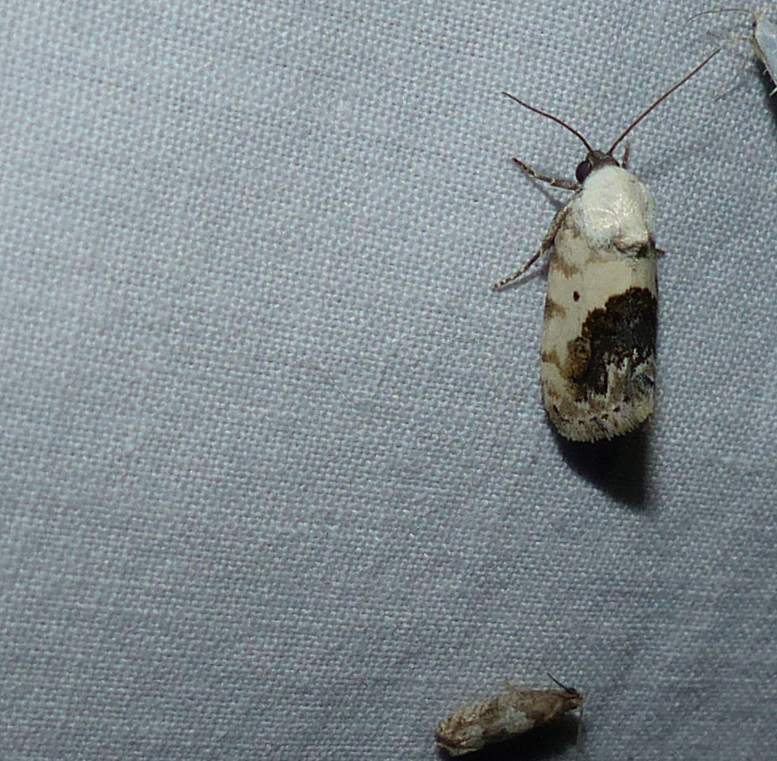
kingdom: Animalia
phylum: Arthropoda
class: Insecta
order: Lepidoptera
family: Noctuidae
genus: Acontia
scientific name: Acontia erastrioides
